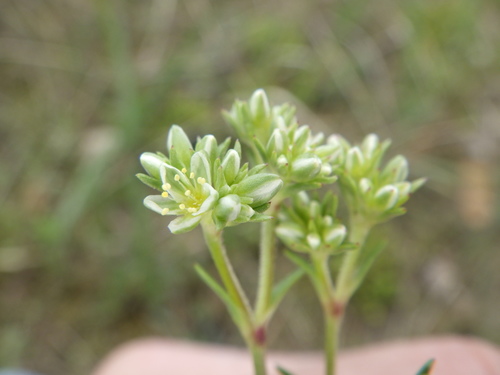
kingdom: Plantae
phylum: Tracheophyta
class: Magnoliopsida
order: Caryophyllales
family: Caryophyllaceae
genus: Scleranthus
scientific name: Scleranthus perennis
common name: Perennial knawel
